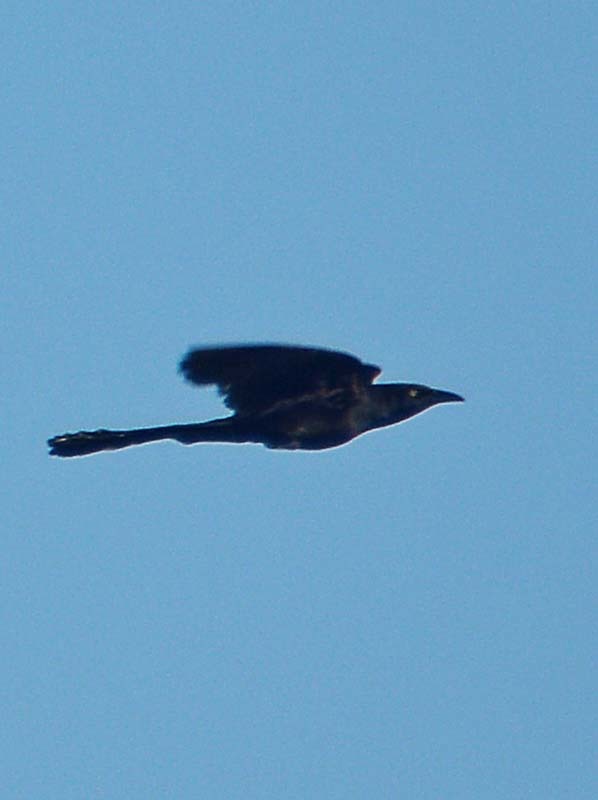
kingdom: Animalia
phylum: Chordata
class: Aves
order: Passeriformes
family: Icteridae
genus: Quiscalus
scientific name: Quiscalus mexicanus
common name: Great-tailed grackle
